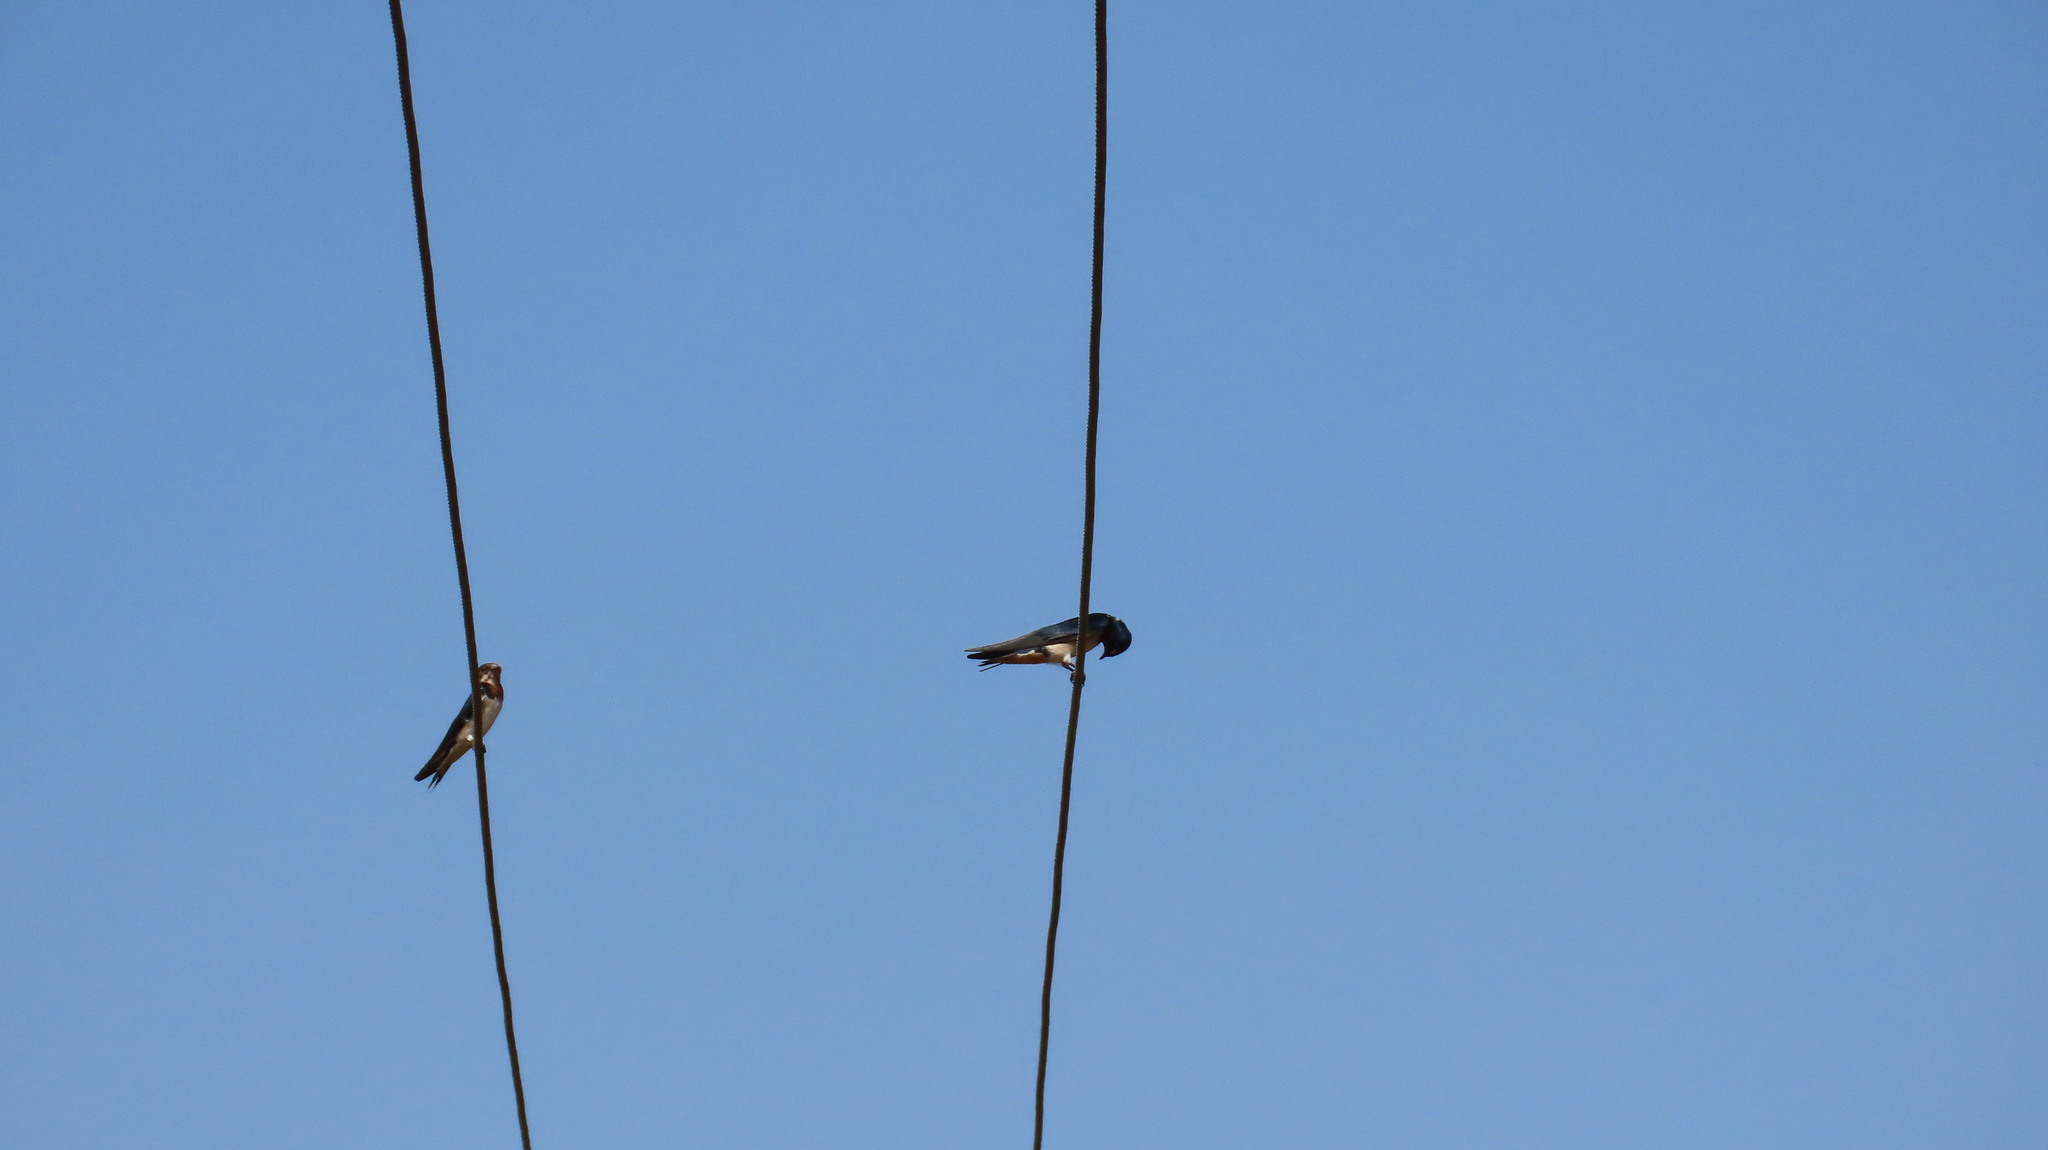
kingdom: Animalia
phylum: Chordata
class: Aves
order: Passeriformes
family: Hirundinidae
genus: Hirundo
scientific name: Hirundo rustica
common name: Barn swallow
